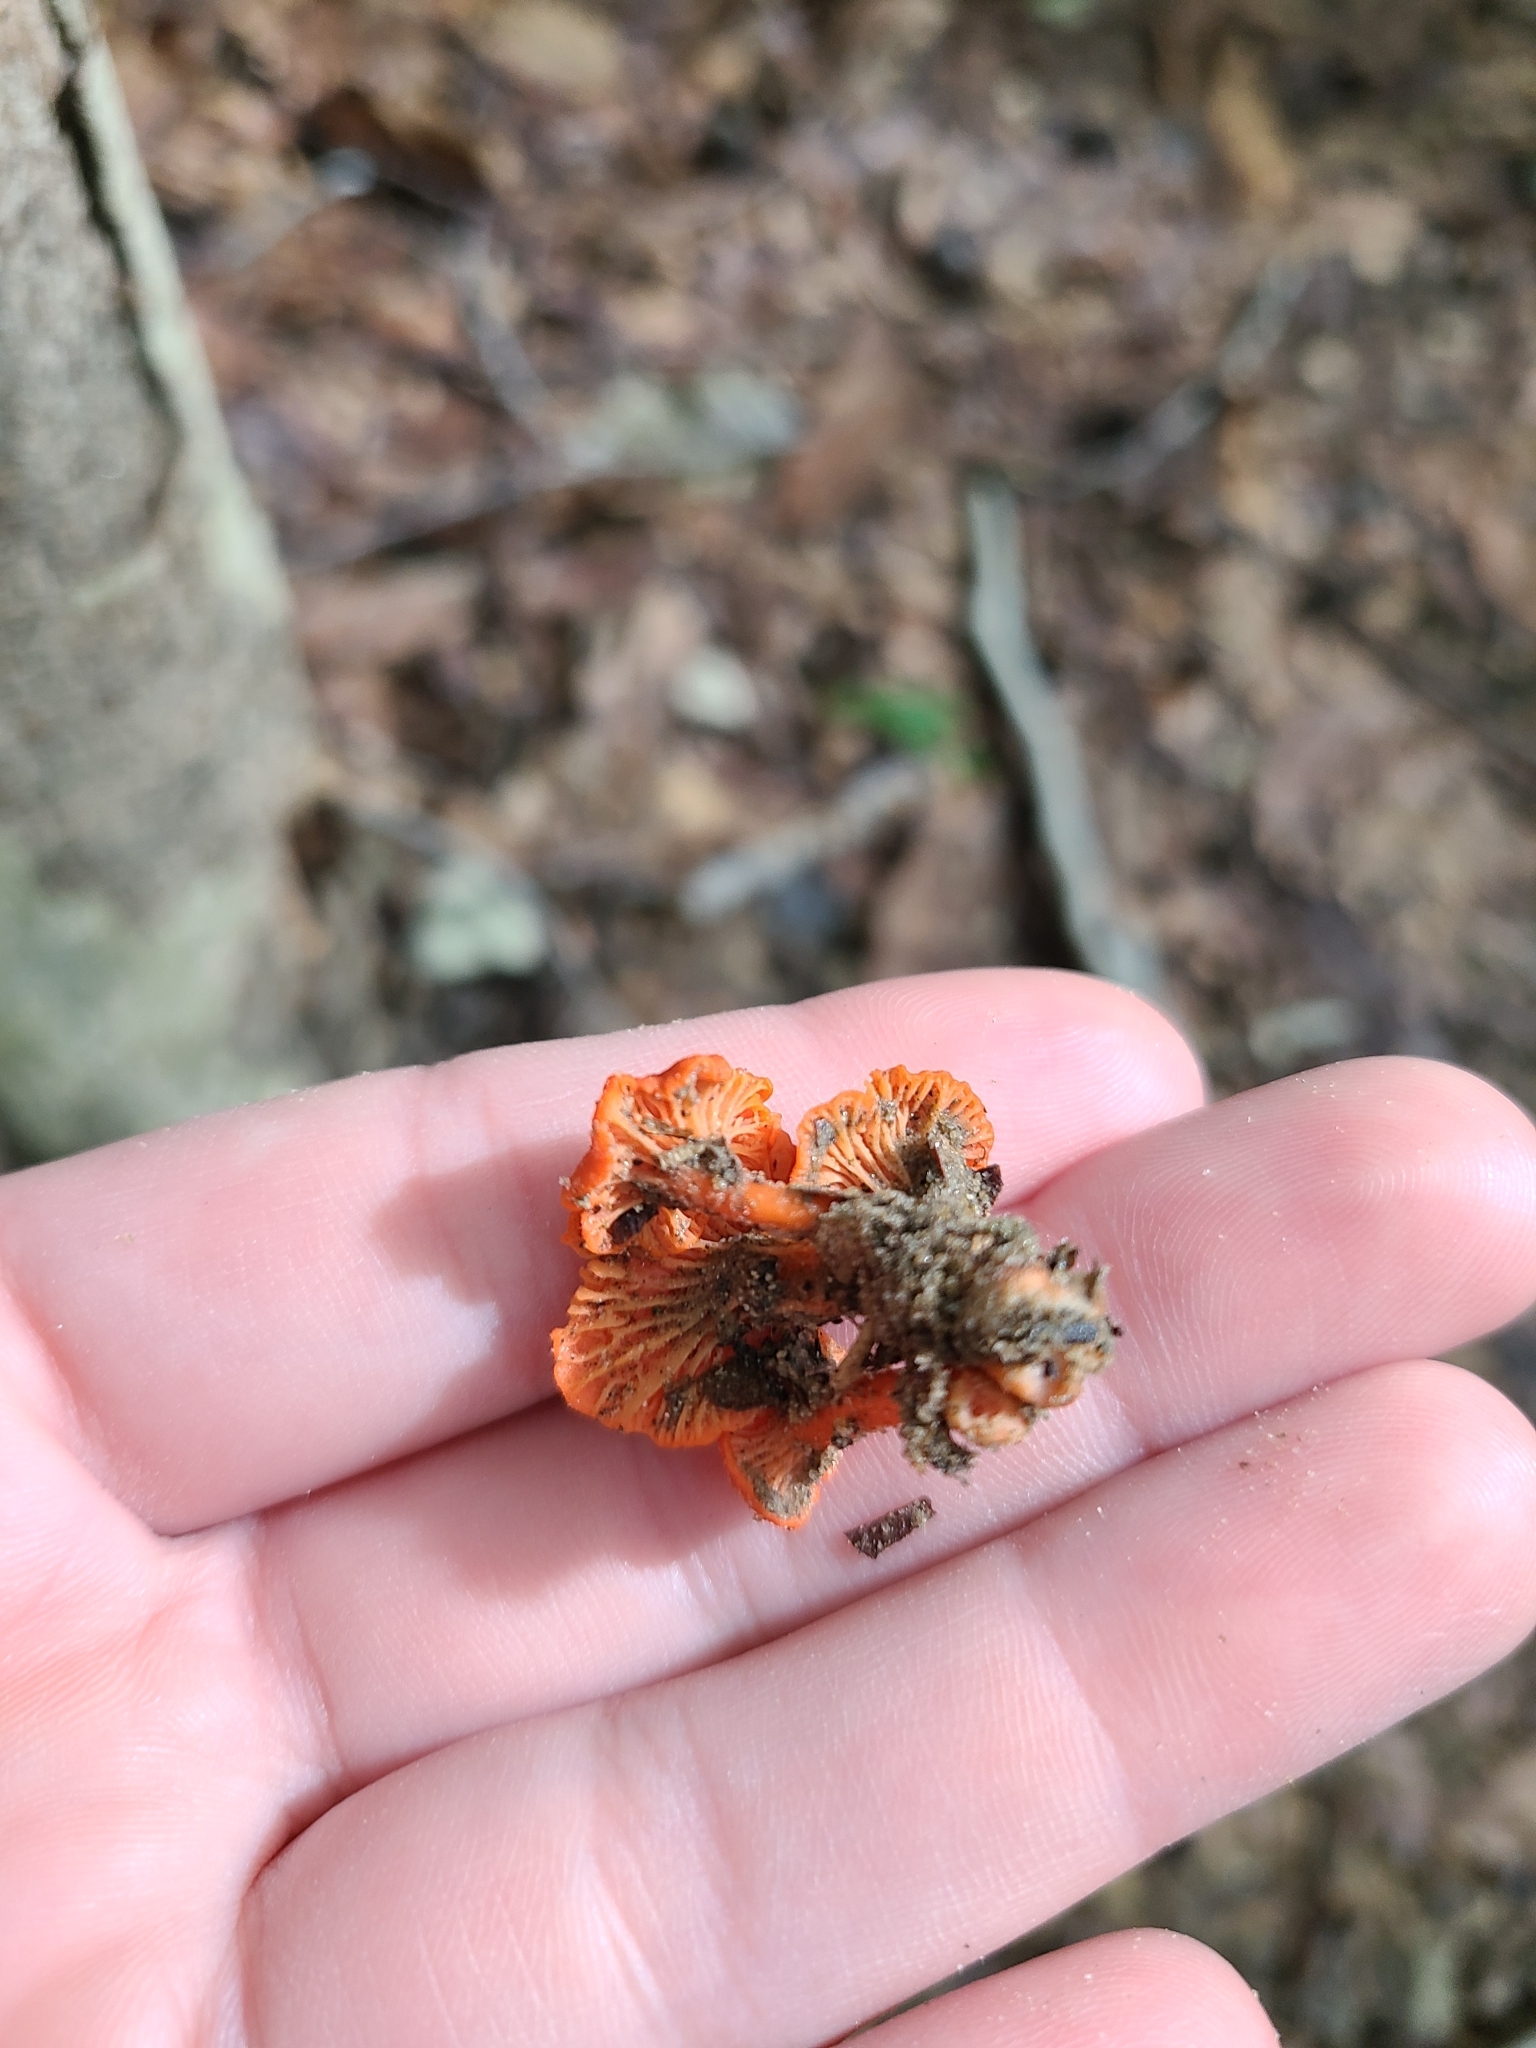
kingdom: Fungi
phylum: Basidiomycota
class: Agaricomycetes
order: Cantharellales
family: Hydnaceae
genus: Cantharellus
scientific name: Cantharellus cinnabarinus
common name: Cinnabar chanterelle
